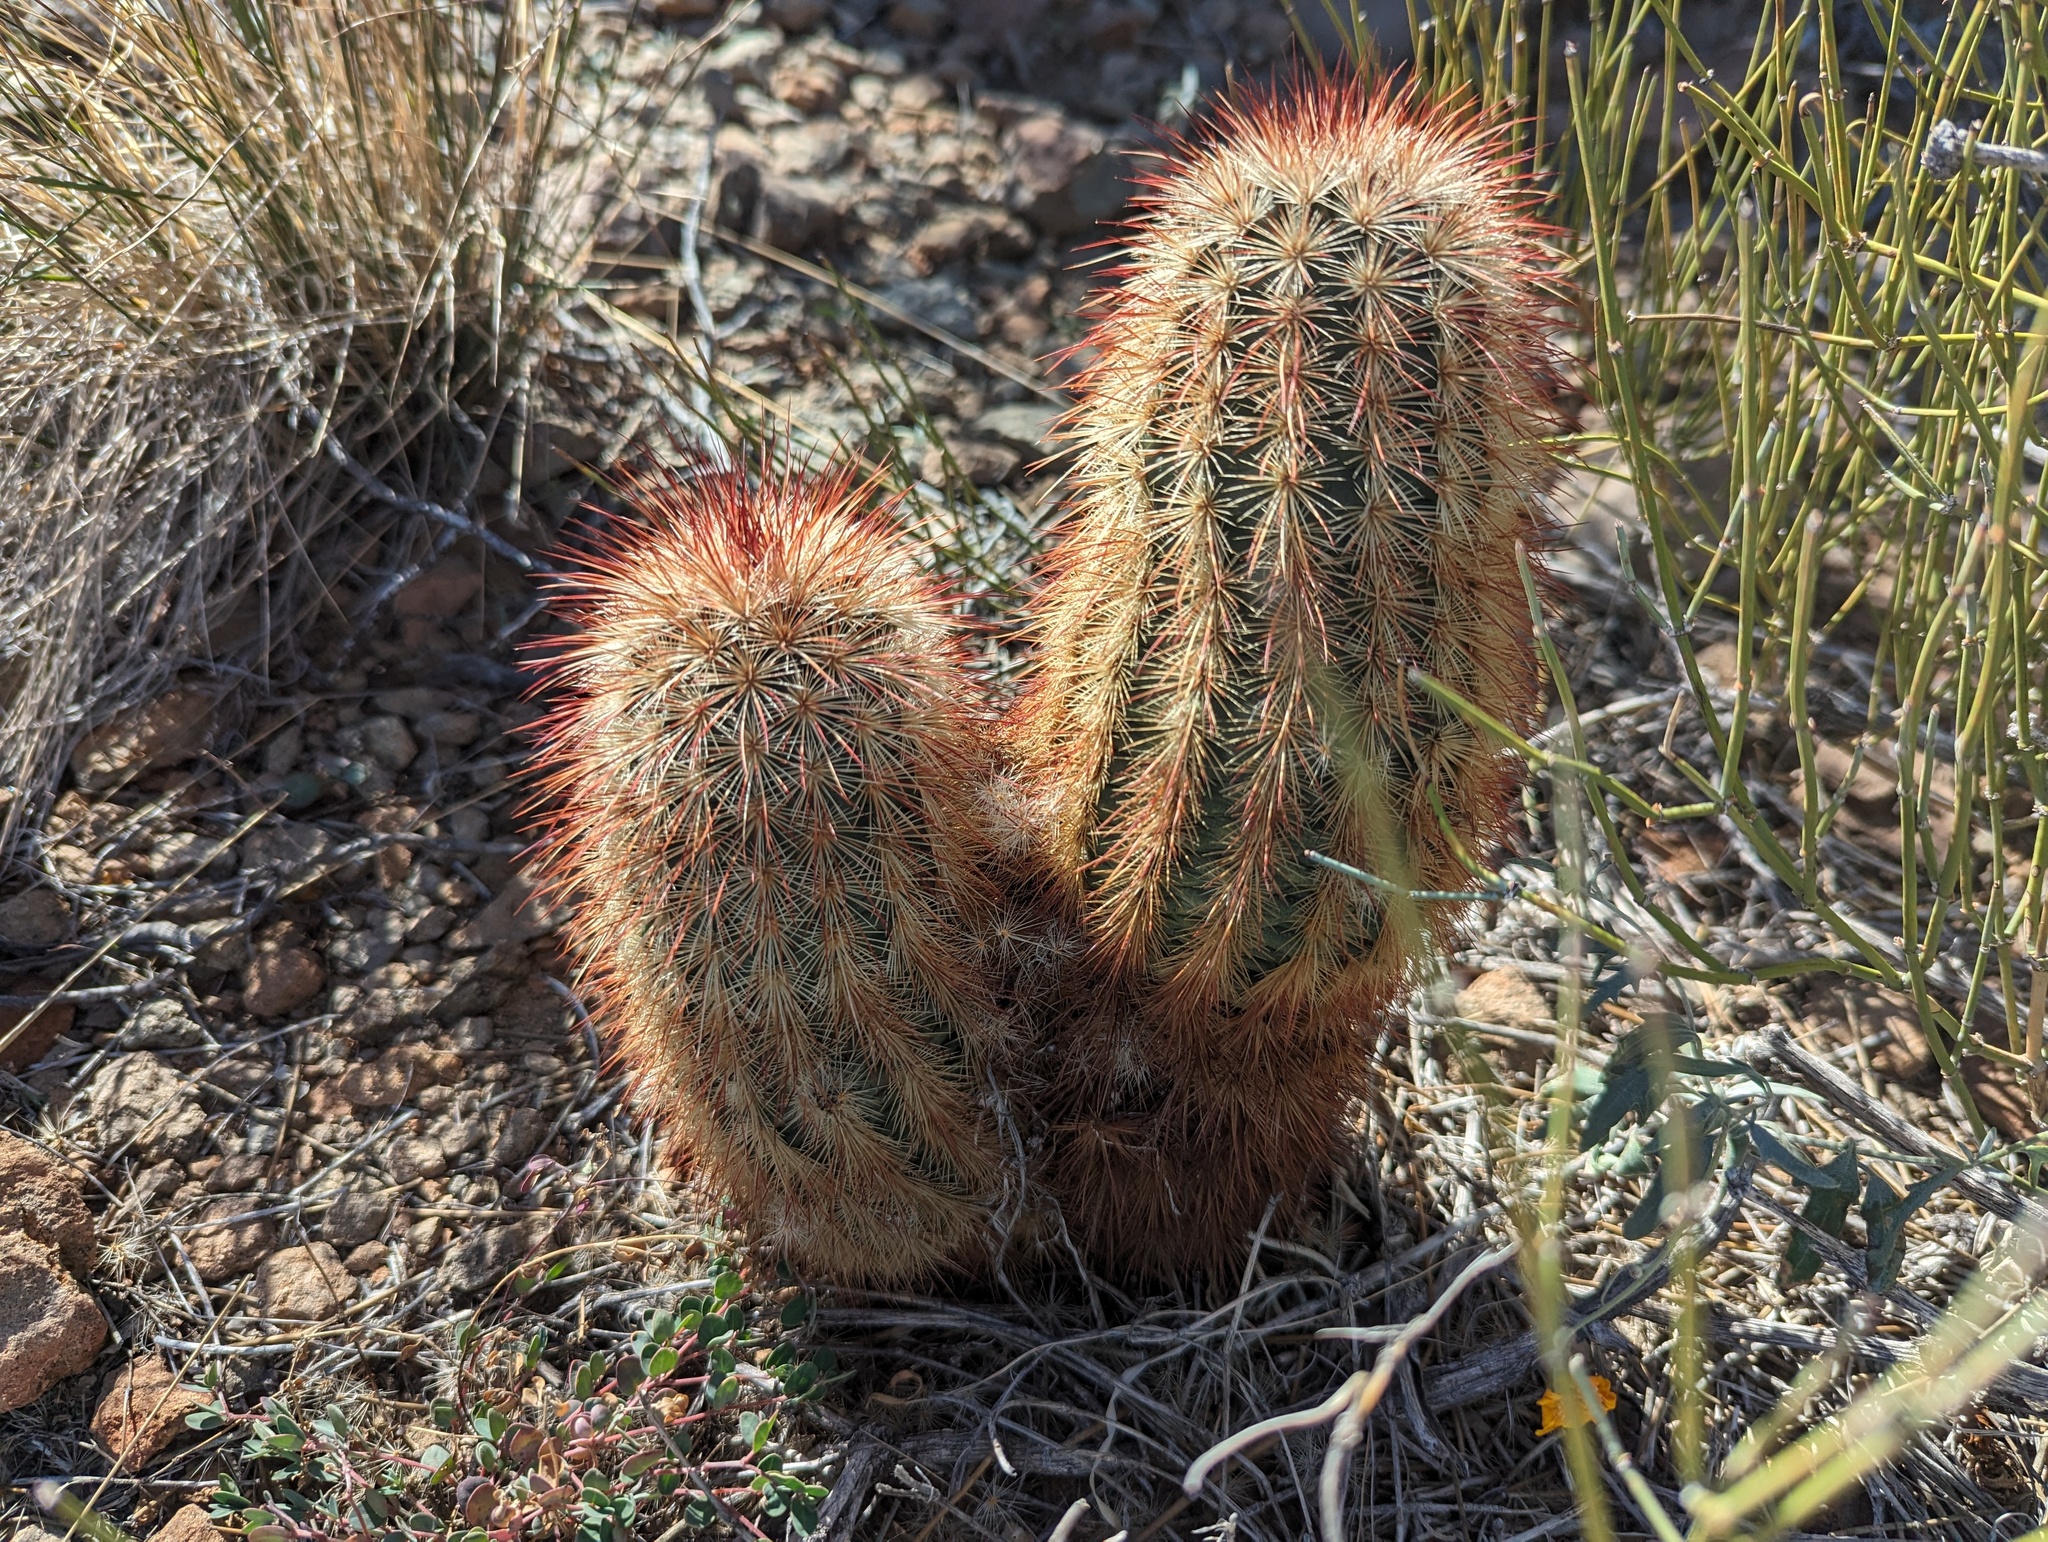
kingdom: Plantae
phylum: Tracheophyta
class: Magnoliopsida
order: Caryophyllales
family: Cactaceae
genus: Echinocereus
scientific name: Echinocereus russanthus
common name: Brownspine hedgehog cactus
